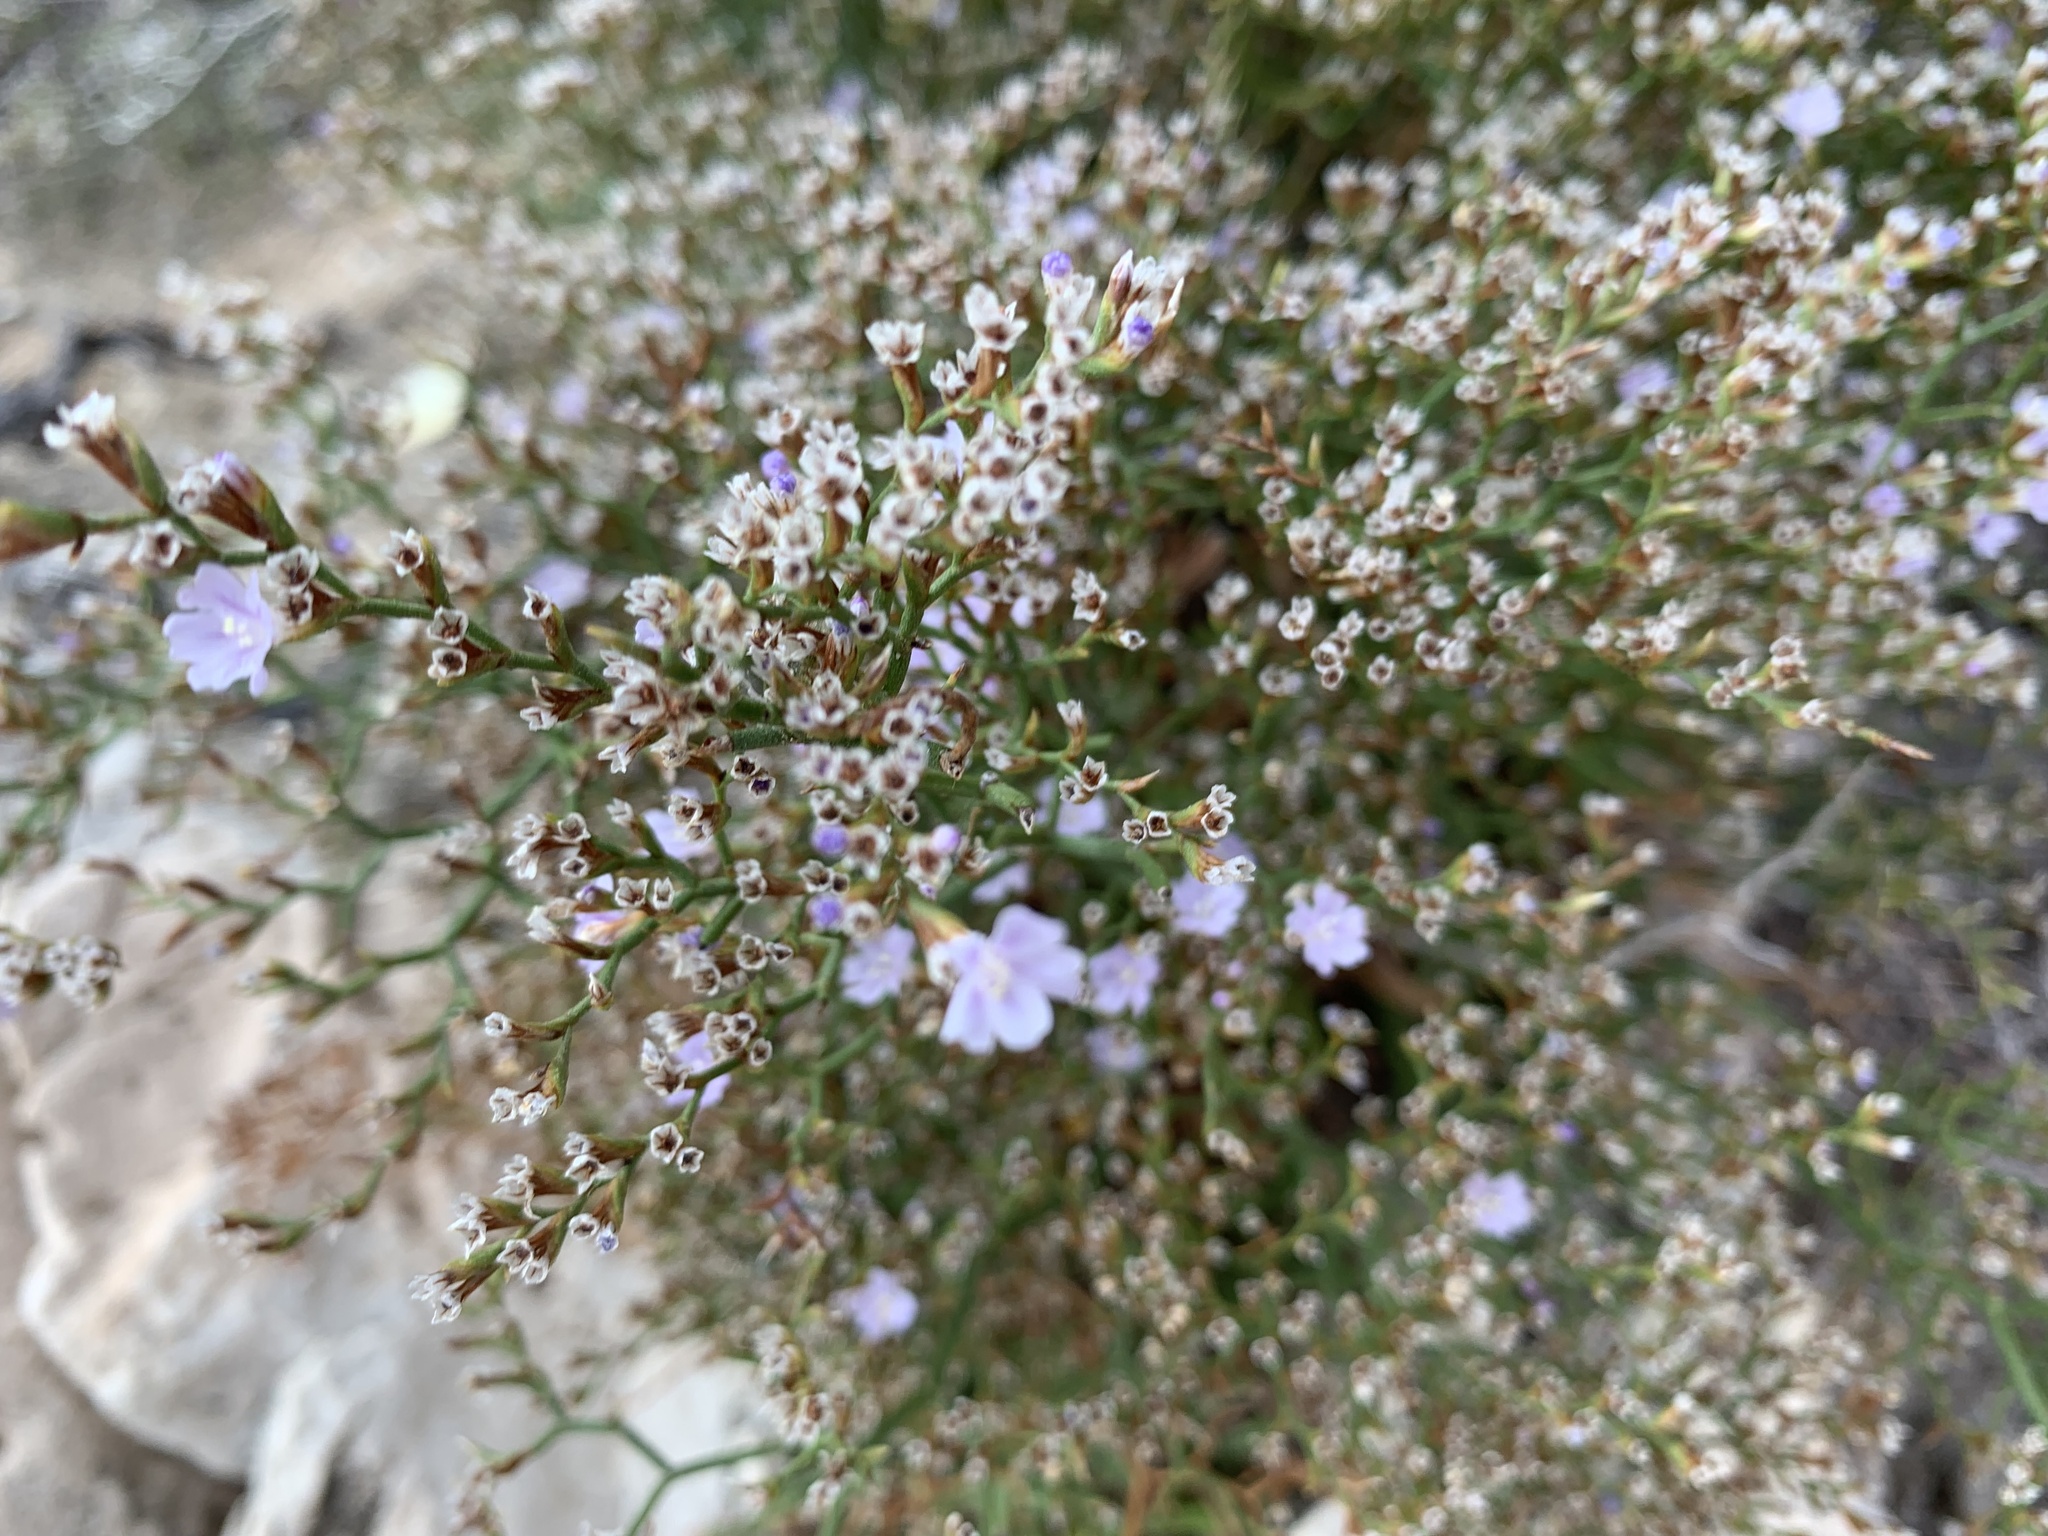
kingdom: Plantae
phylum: Tracheophyta
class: Magnoliopsida
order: Caryophyllales
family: Plumbaginaceae
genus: Limonium
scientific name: Limonium pontium
